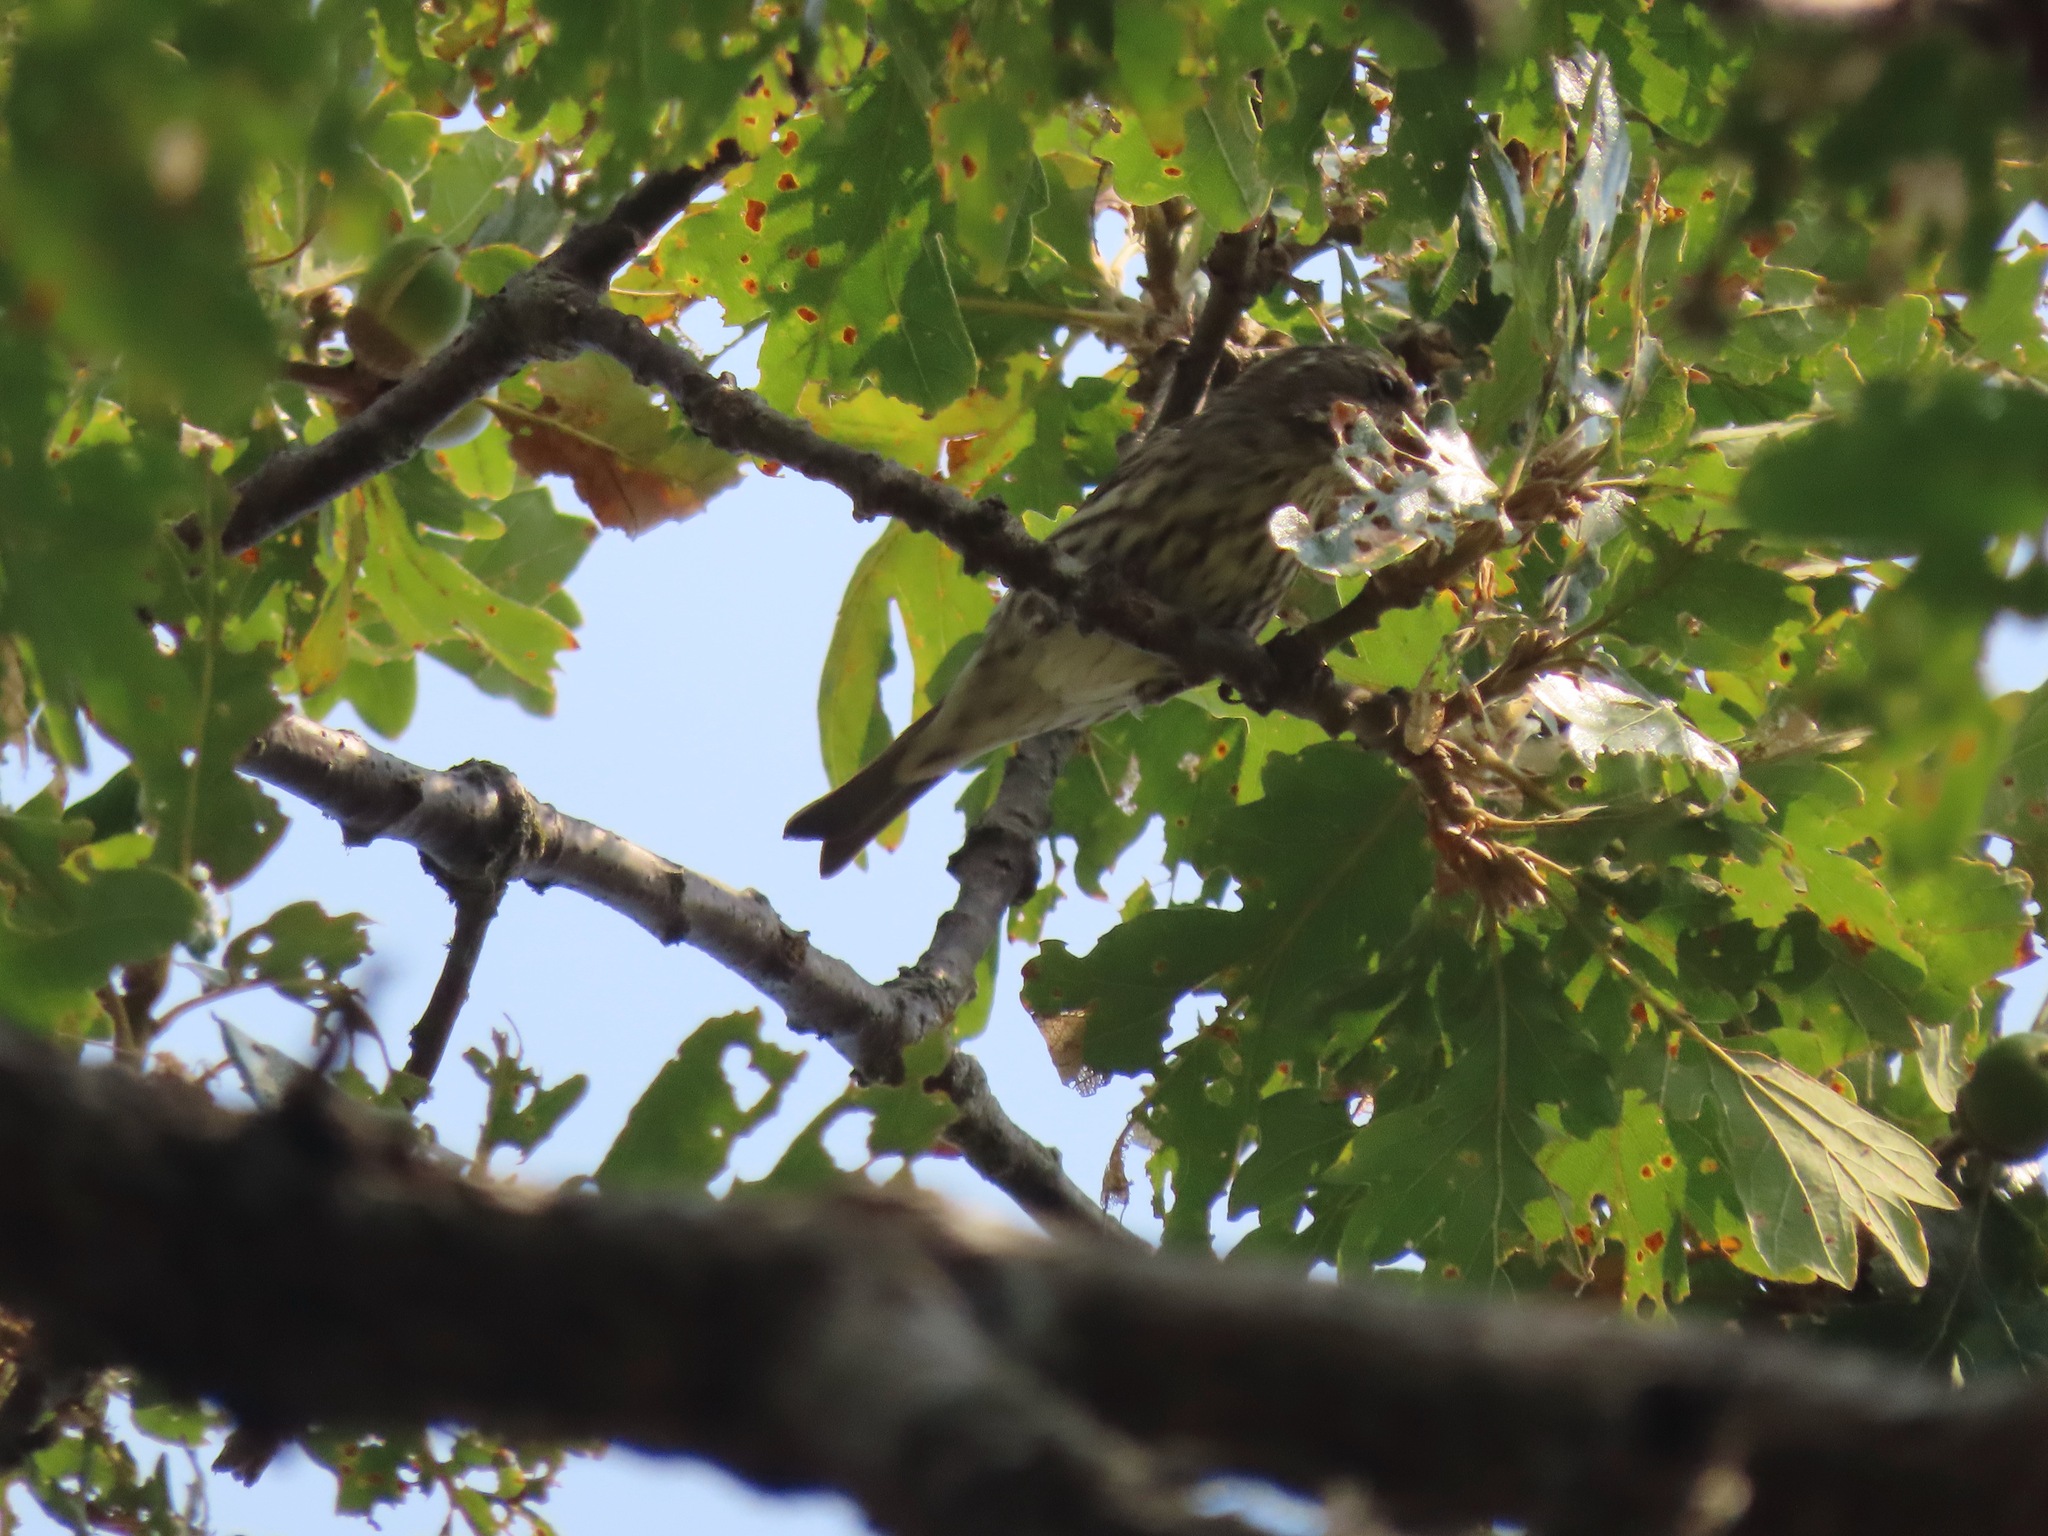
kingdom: Animalia
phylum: Chordata
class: Aves
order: Passeriformes
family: Fringillidae
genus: Haemorhous
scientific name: Haemorhous purpureus
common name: Purple finch
